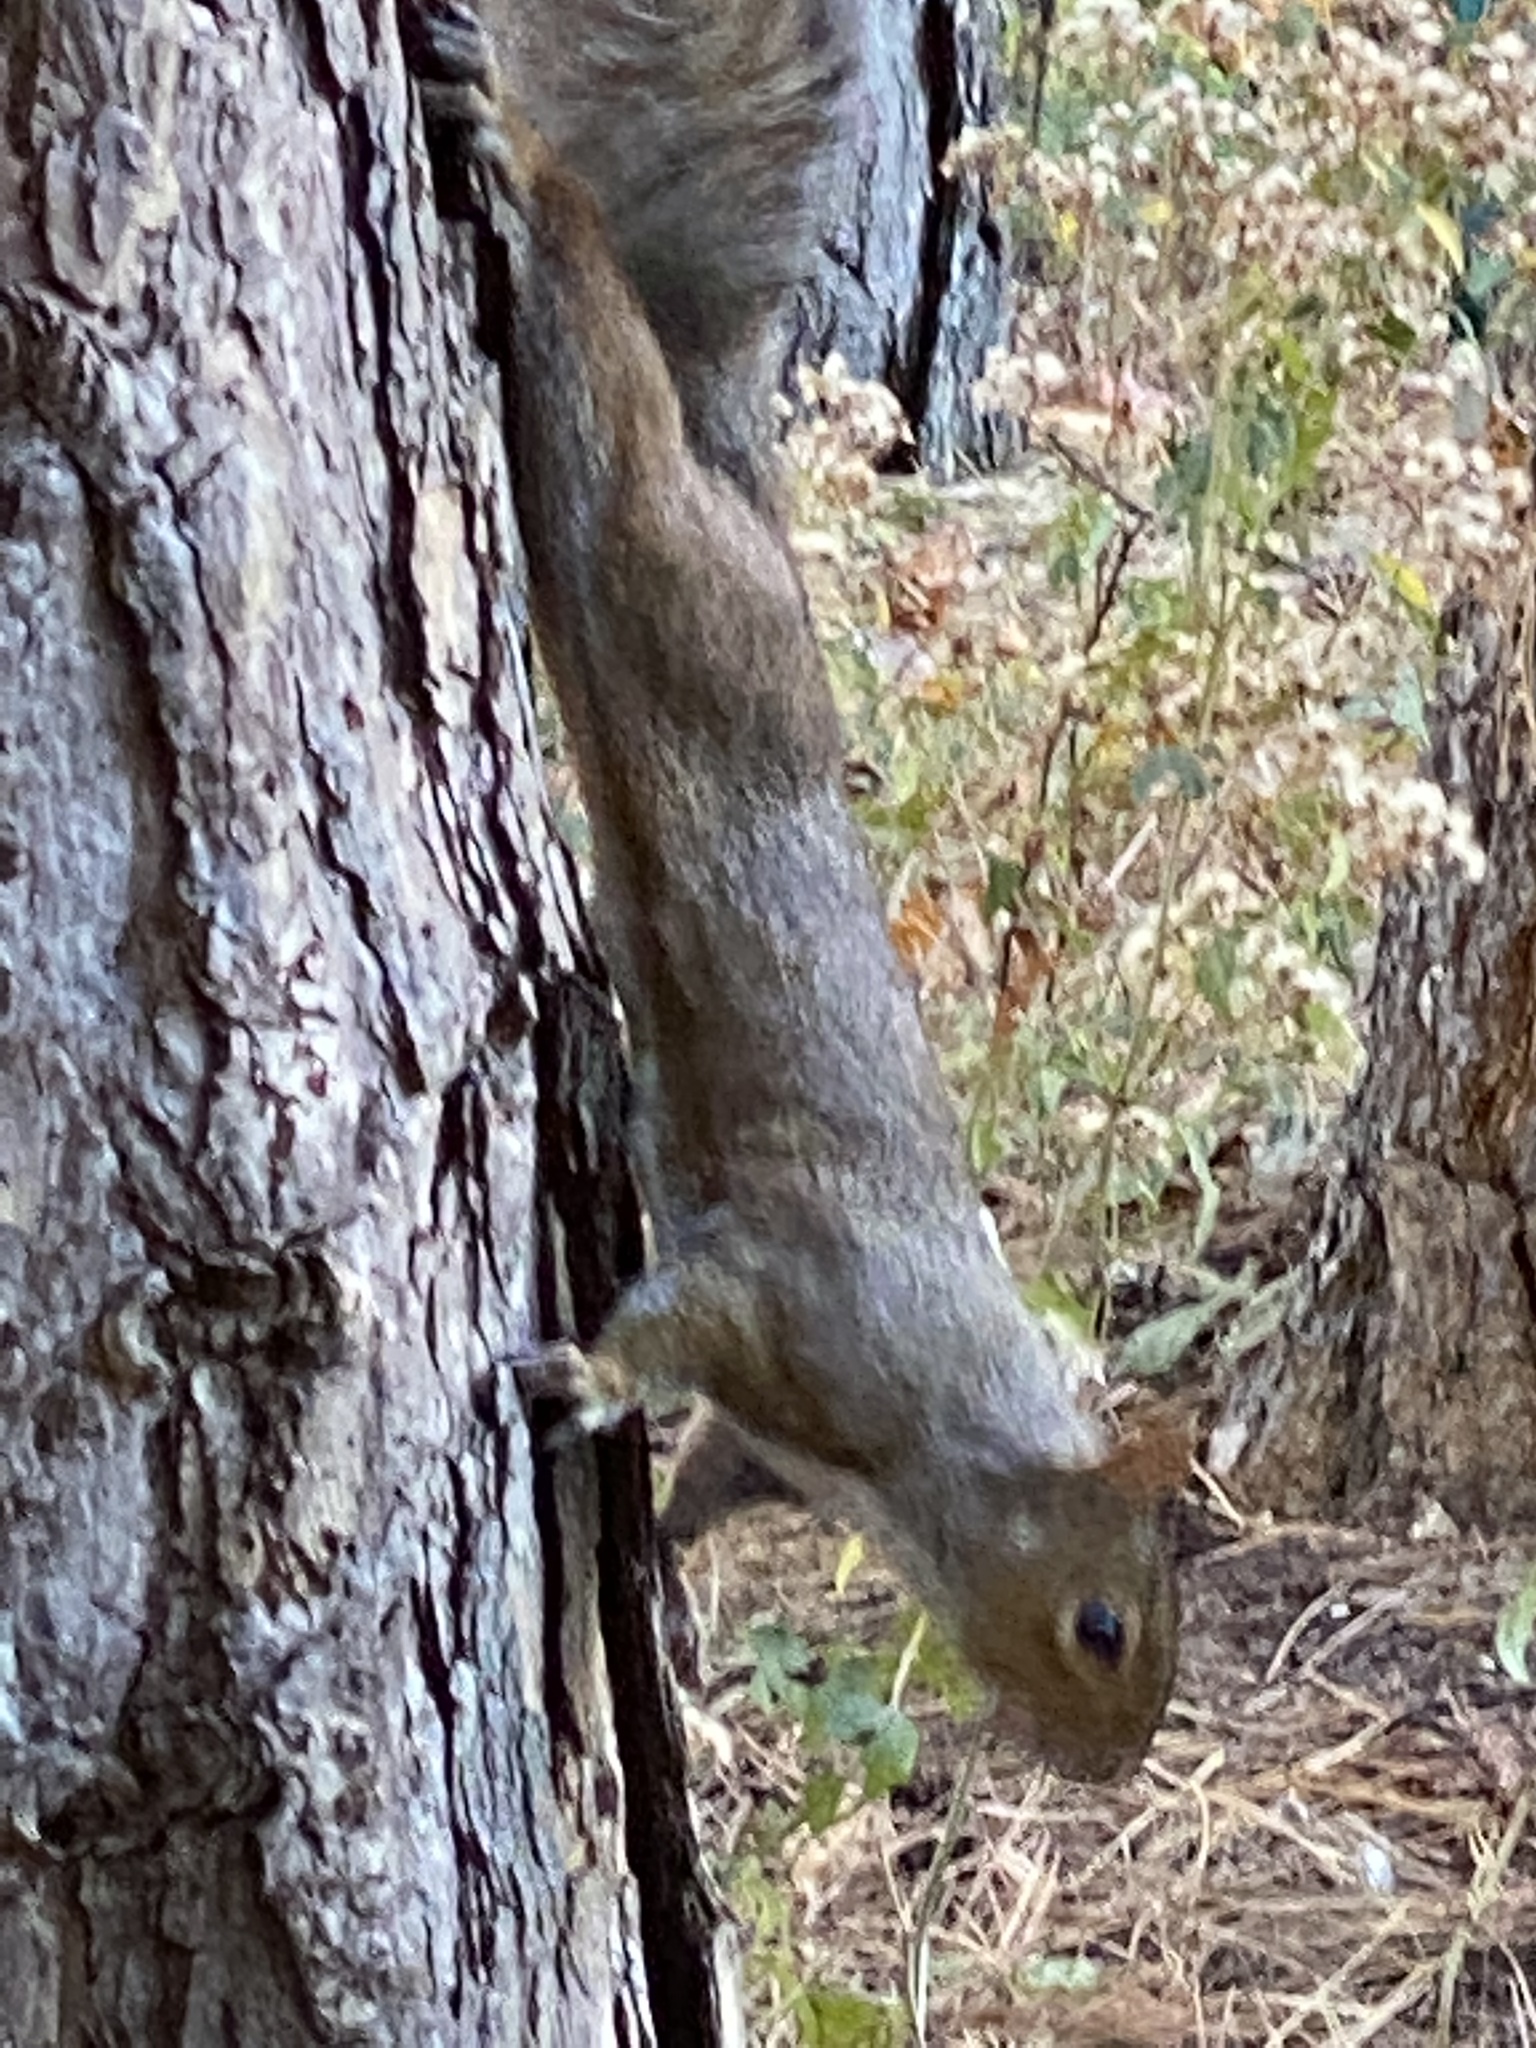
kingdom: Animalia
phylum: Chordata
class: Mammalia
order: Rodentia
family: Sciuridae
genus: Sciurus
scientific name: Sciurus carolinensis
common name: Eastern gray squirrel
